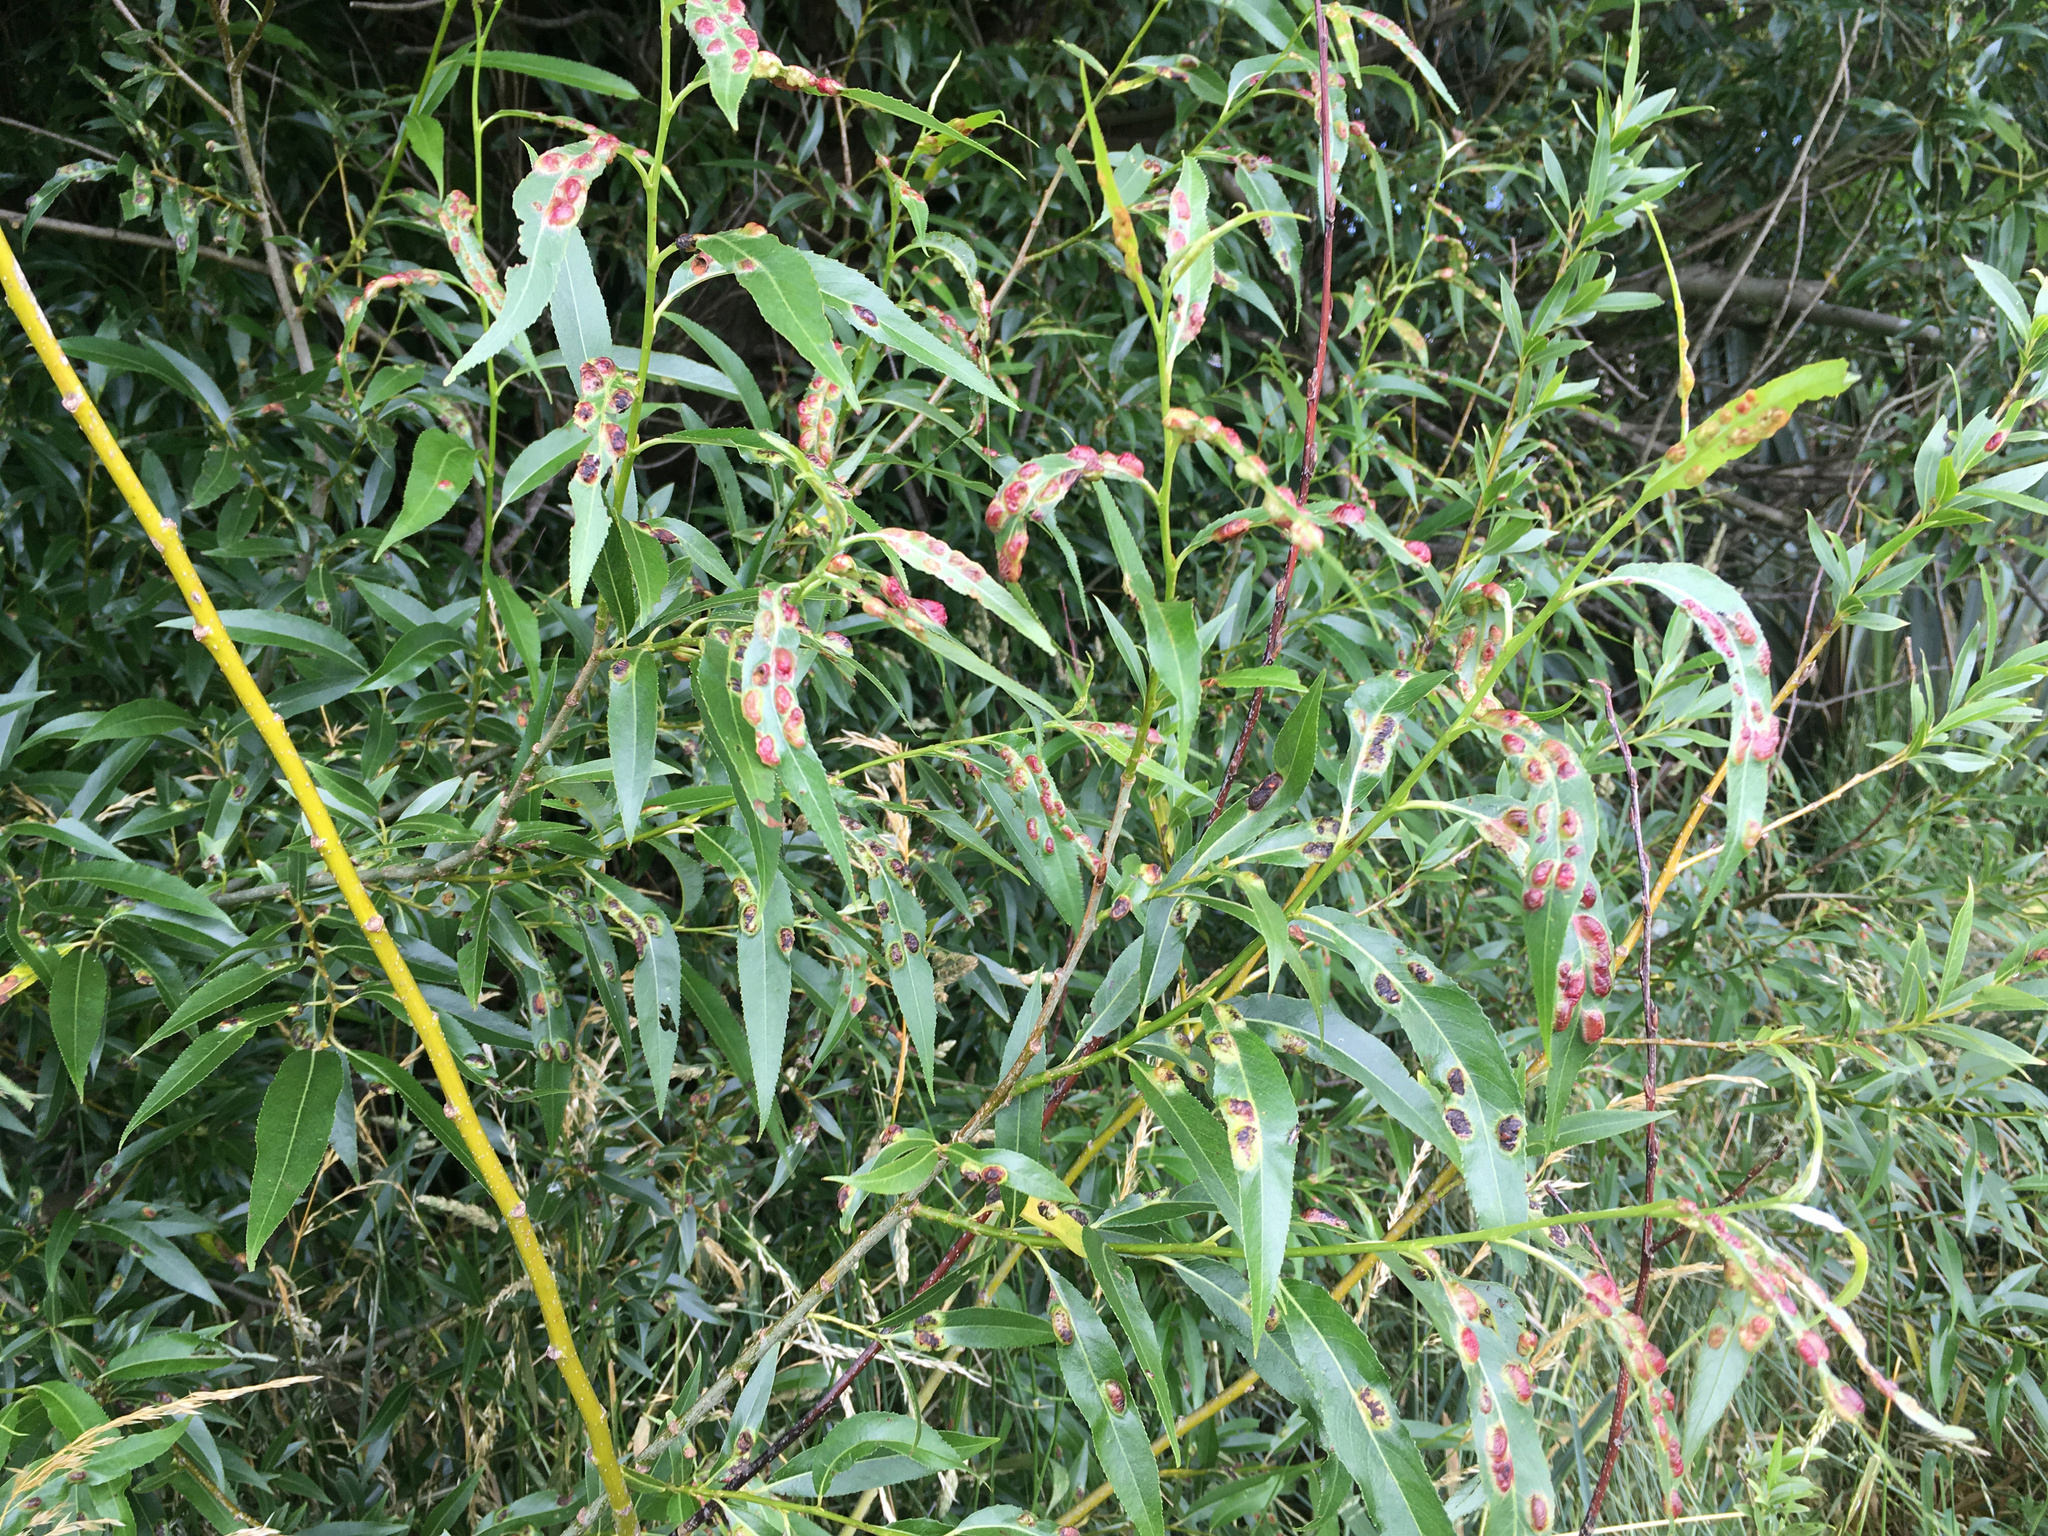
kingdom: Animalia
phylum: Arthropoda
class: Insecta
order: Hymenoptera
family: Tenthredinidae
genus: Pontania
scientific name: Pontania proxima
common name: Common sawfly
